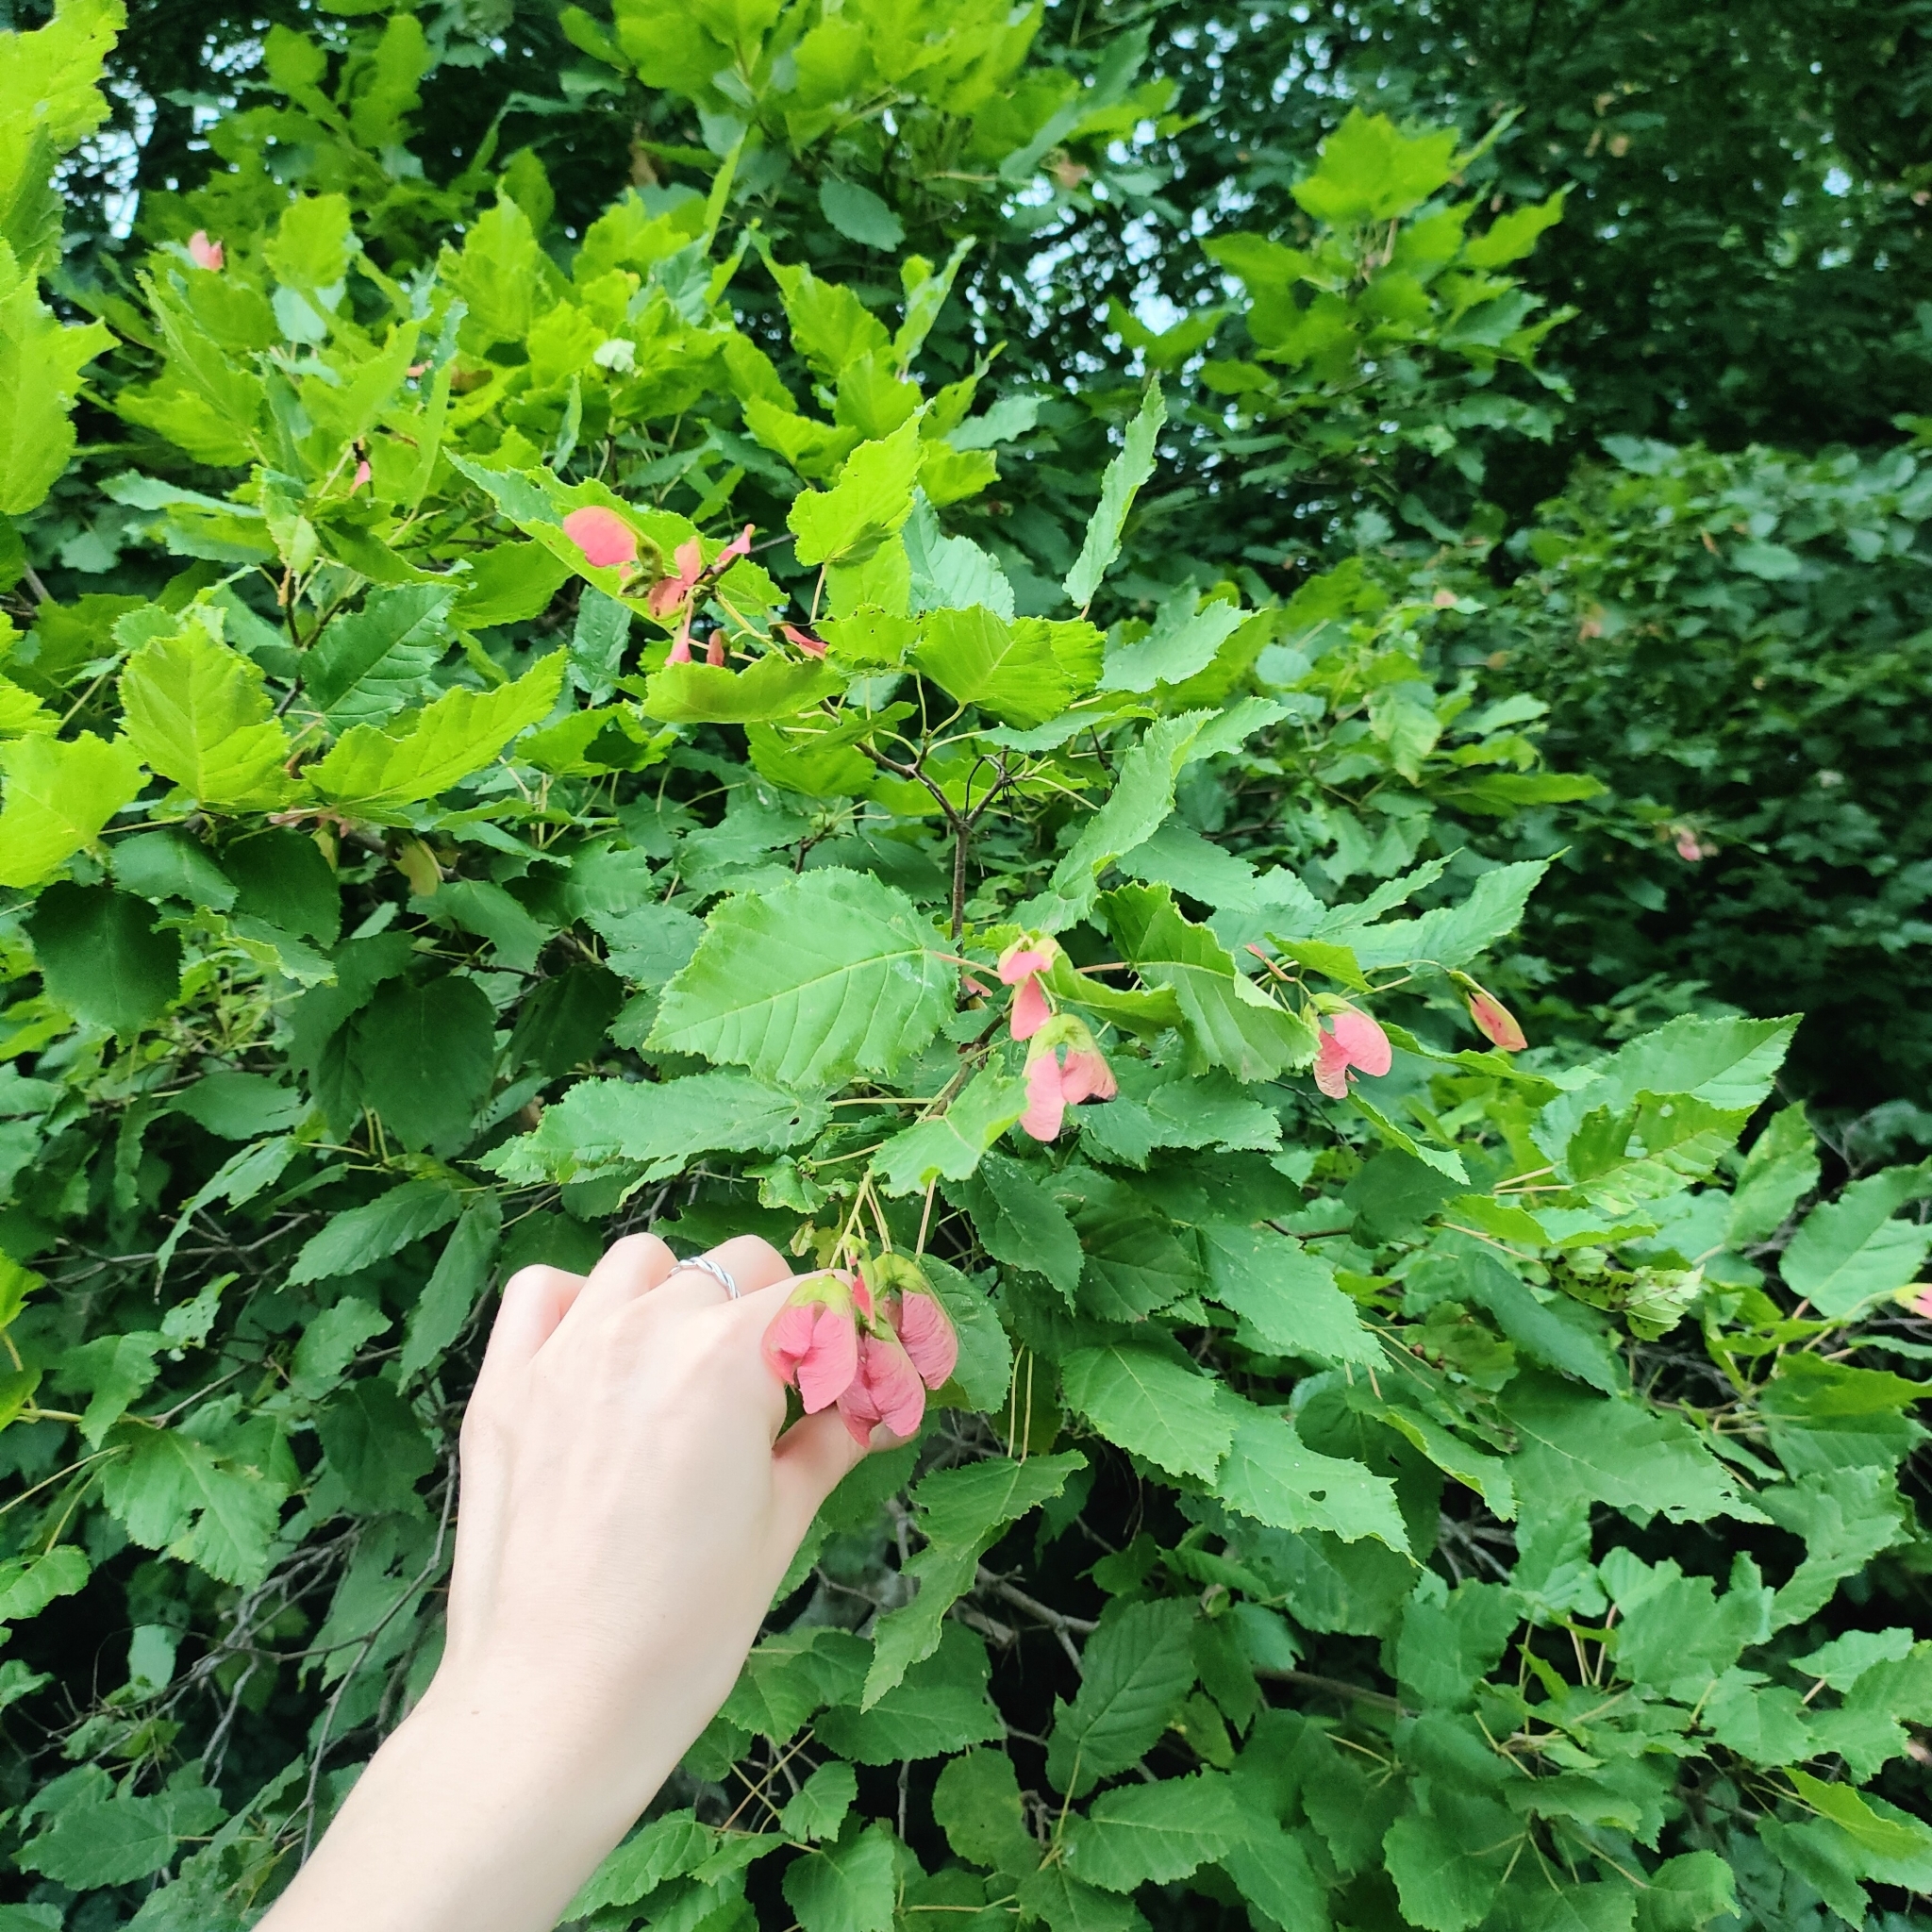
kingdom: Plantae
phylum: Tracheophyta
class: Magnoliopsida
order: Sapindales
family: Sapindaceae
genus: Acer
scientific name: Acer tataricum
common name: Tartar maple
